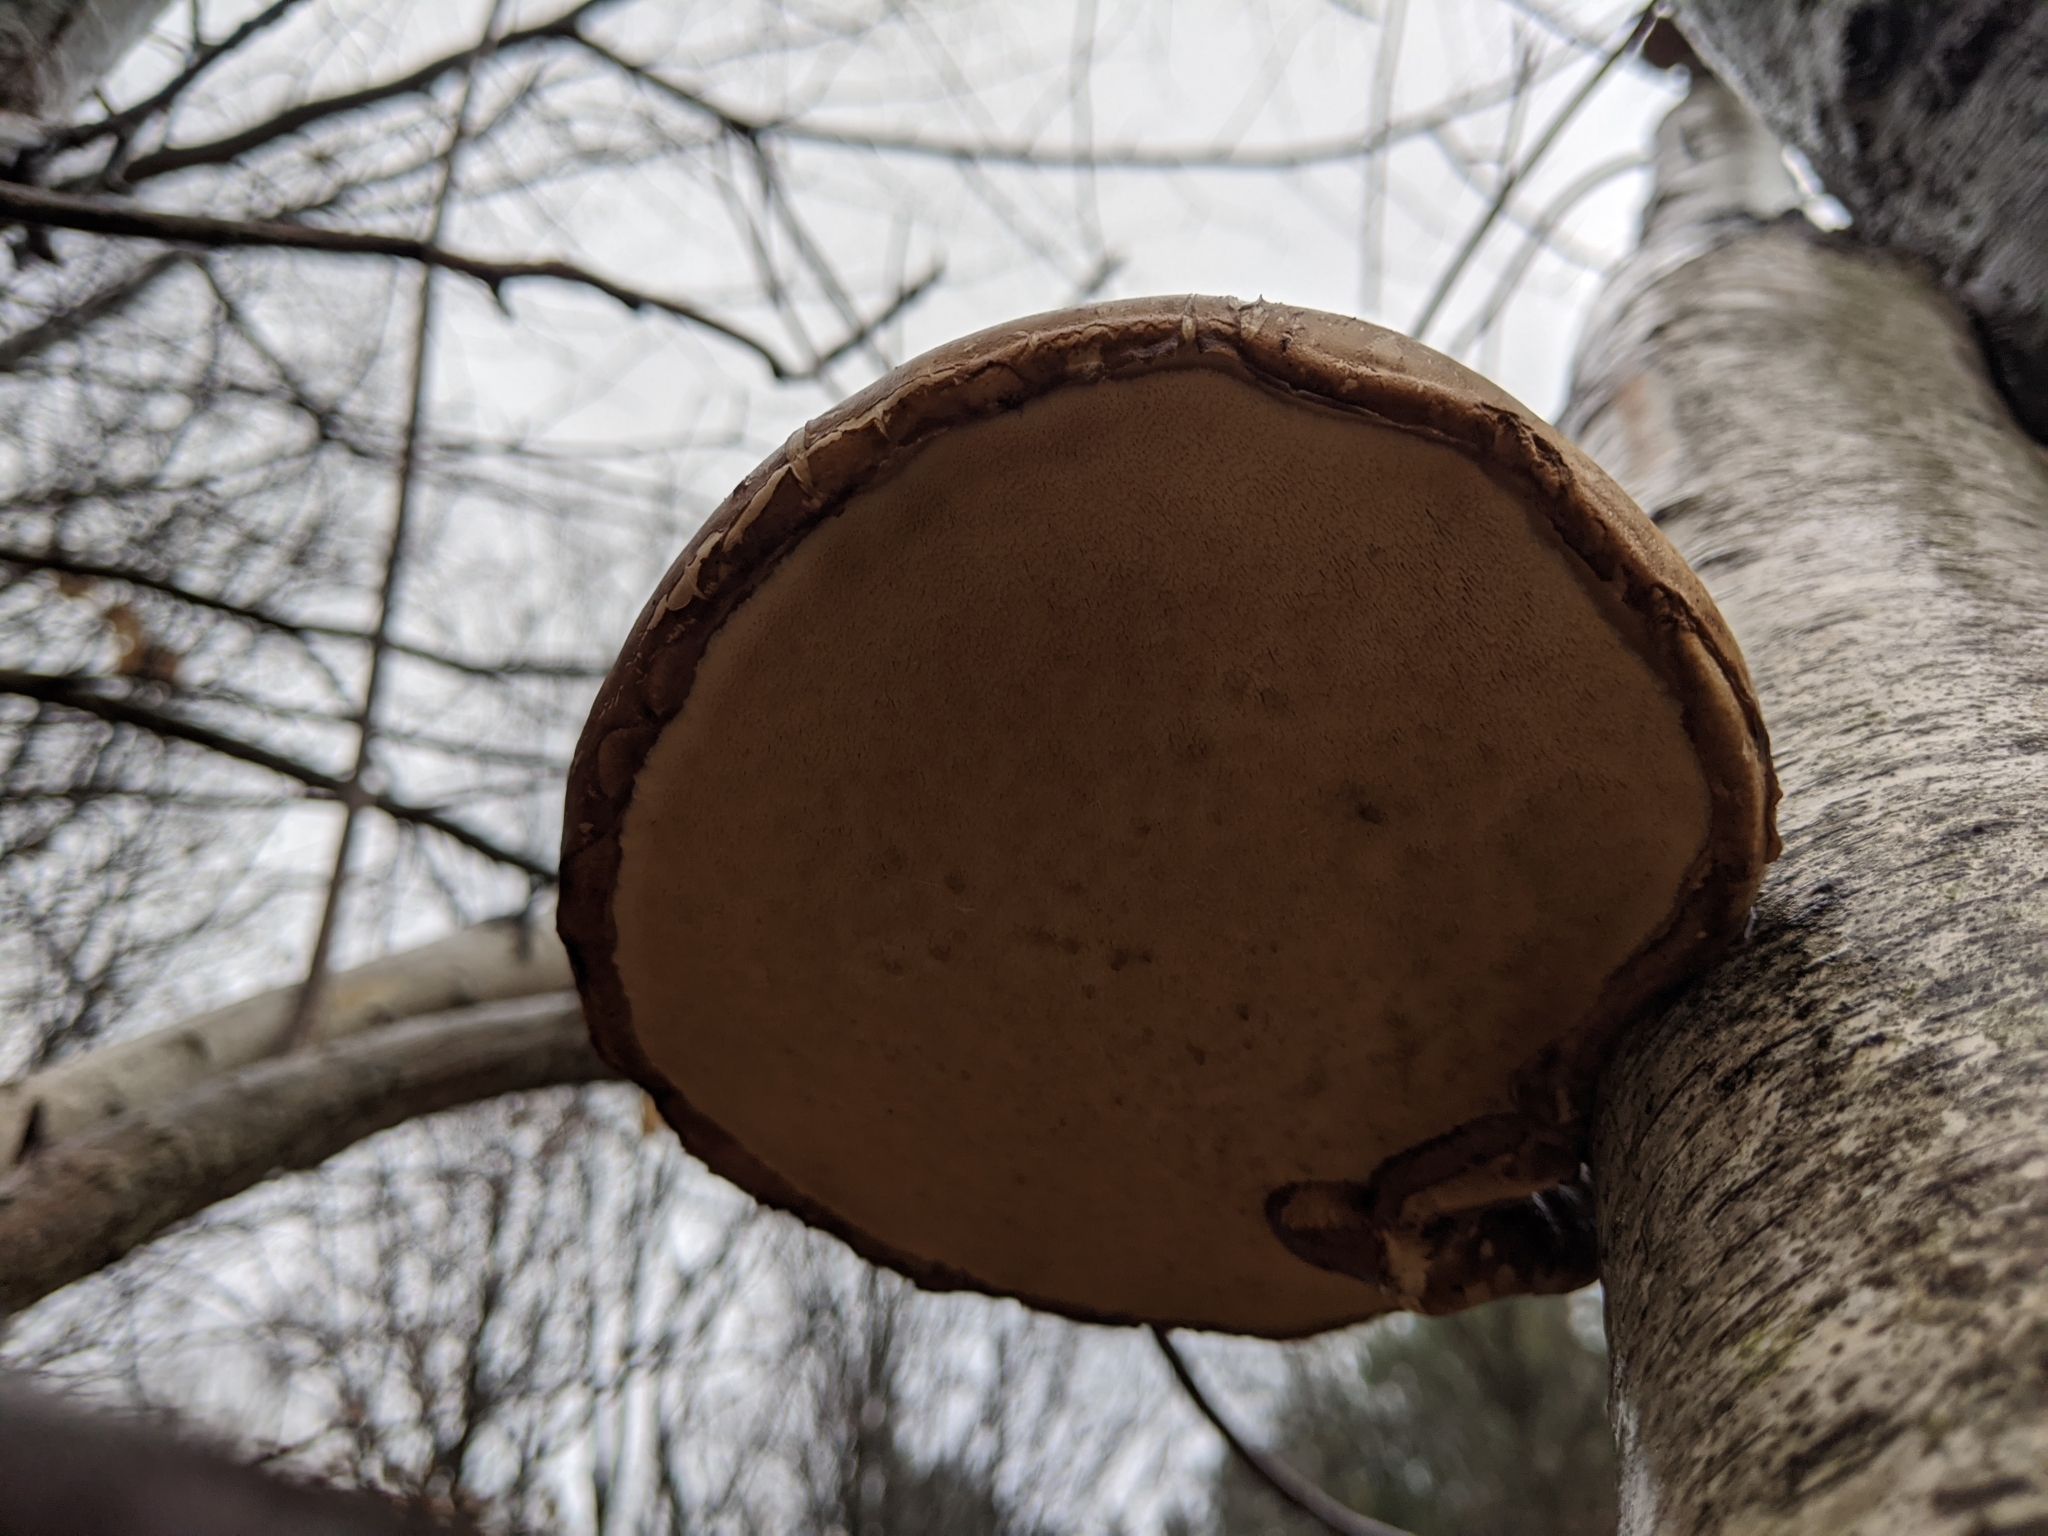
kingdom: Fungi
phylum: Basidiomycota
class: Agaricomycetes
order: Polyporales
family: Fomitopsidaceae
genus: Fomitopsis
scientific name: Fomitopsis betulina
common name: Birch polypore
